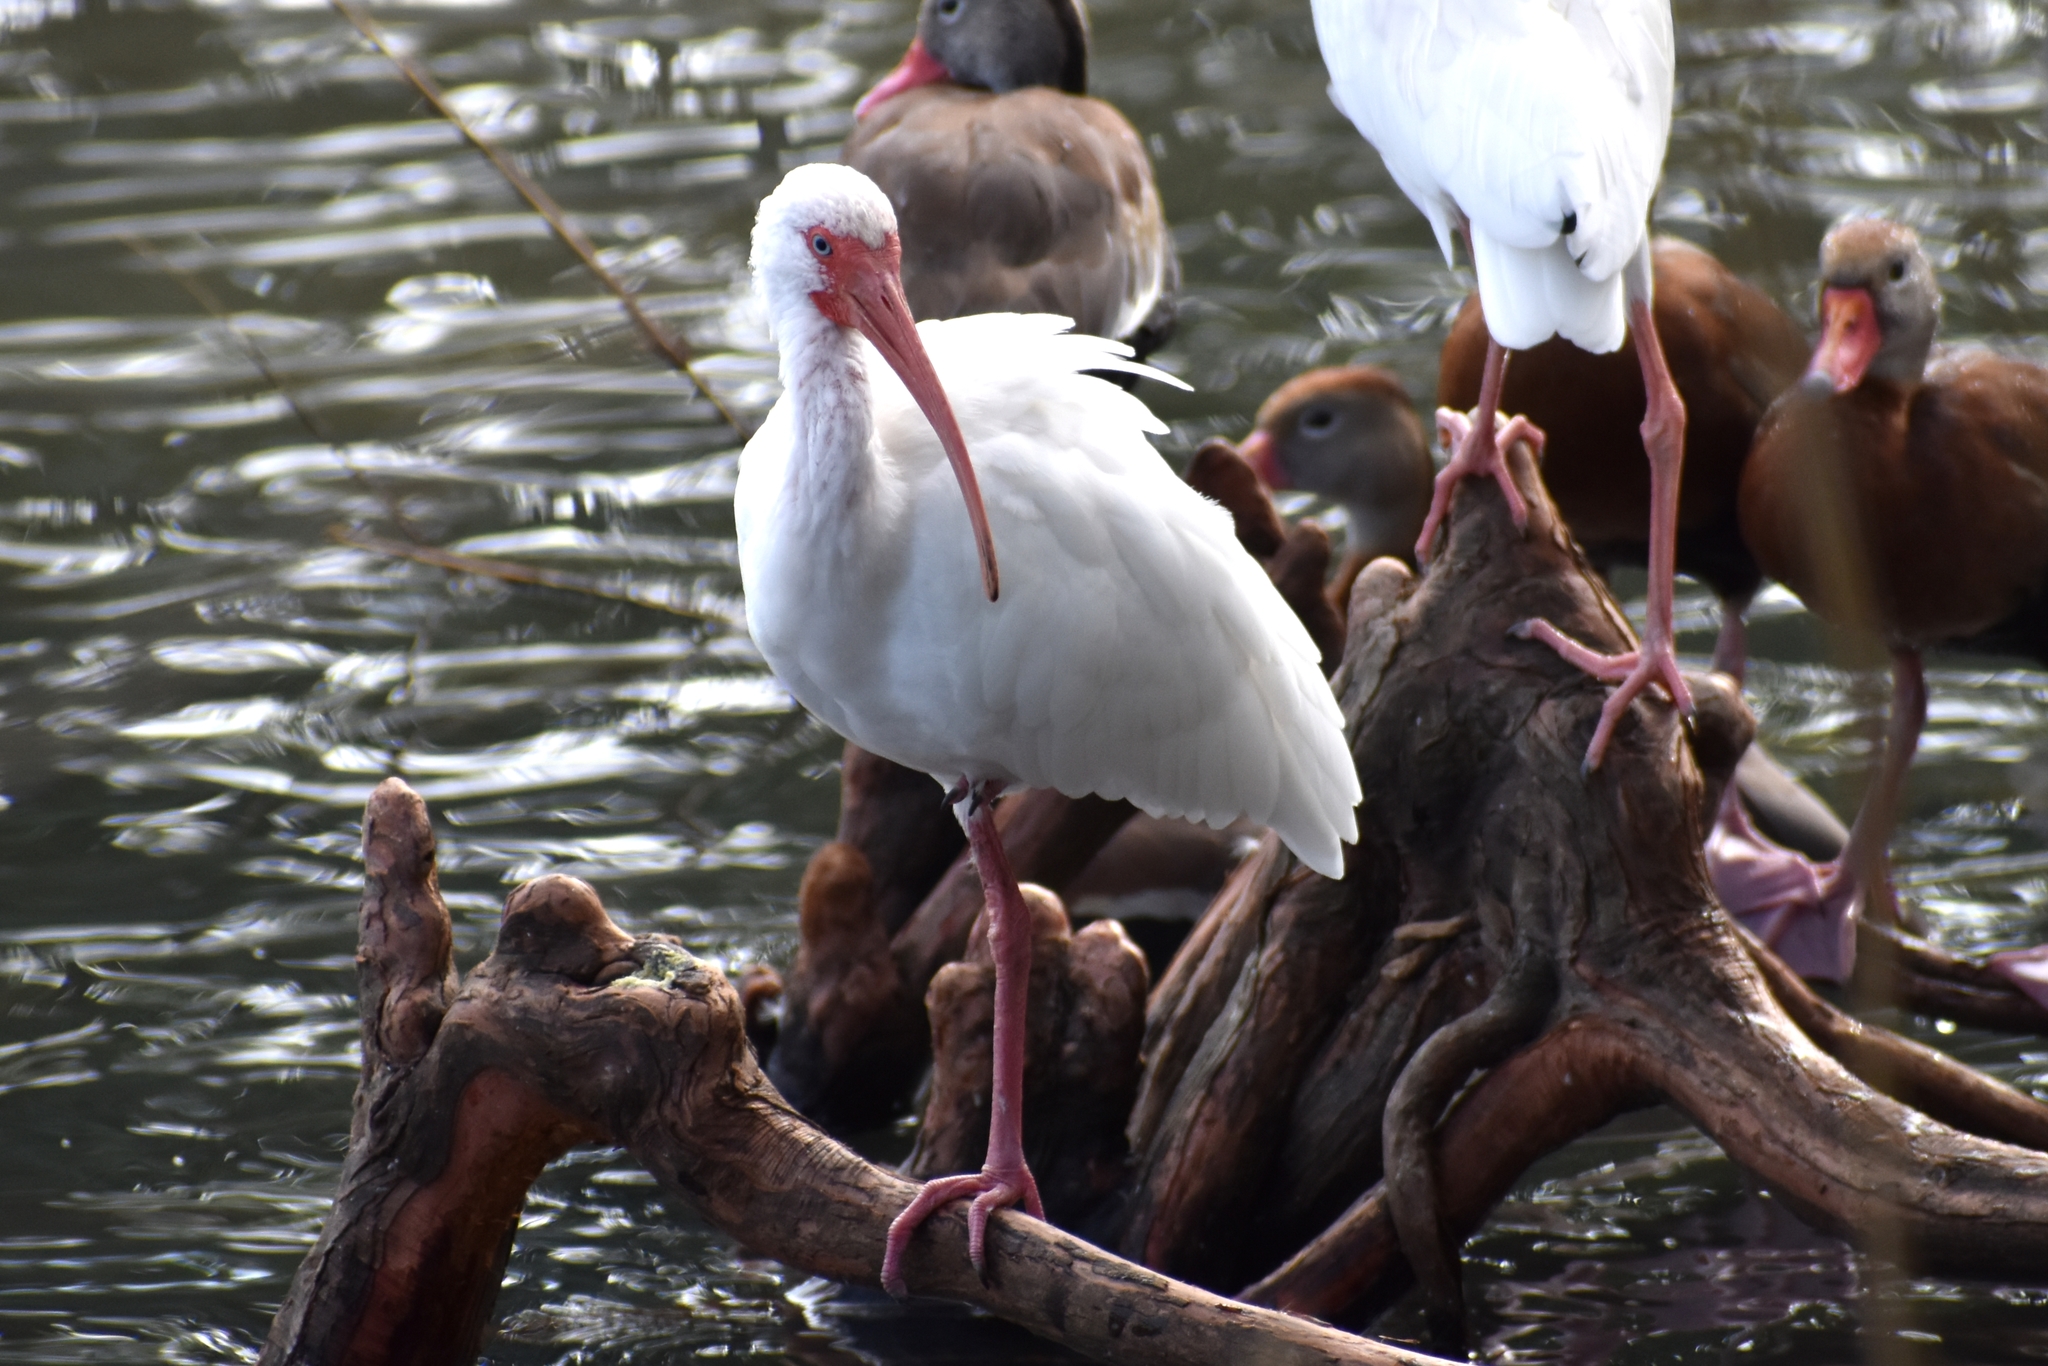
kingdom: Animalia
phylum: Chordata
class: Aves
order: Pelecaniformes
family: Threskiornithidae
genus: Eudocimus
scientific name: Eudocimus albus
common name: White ibis
